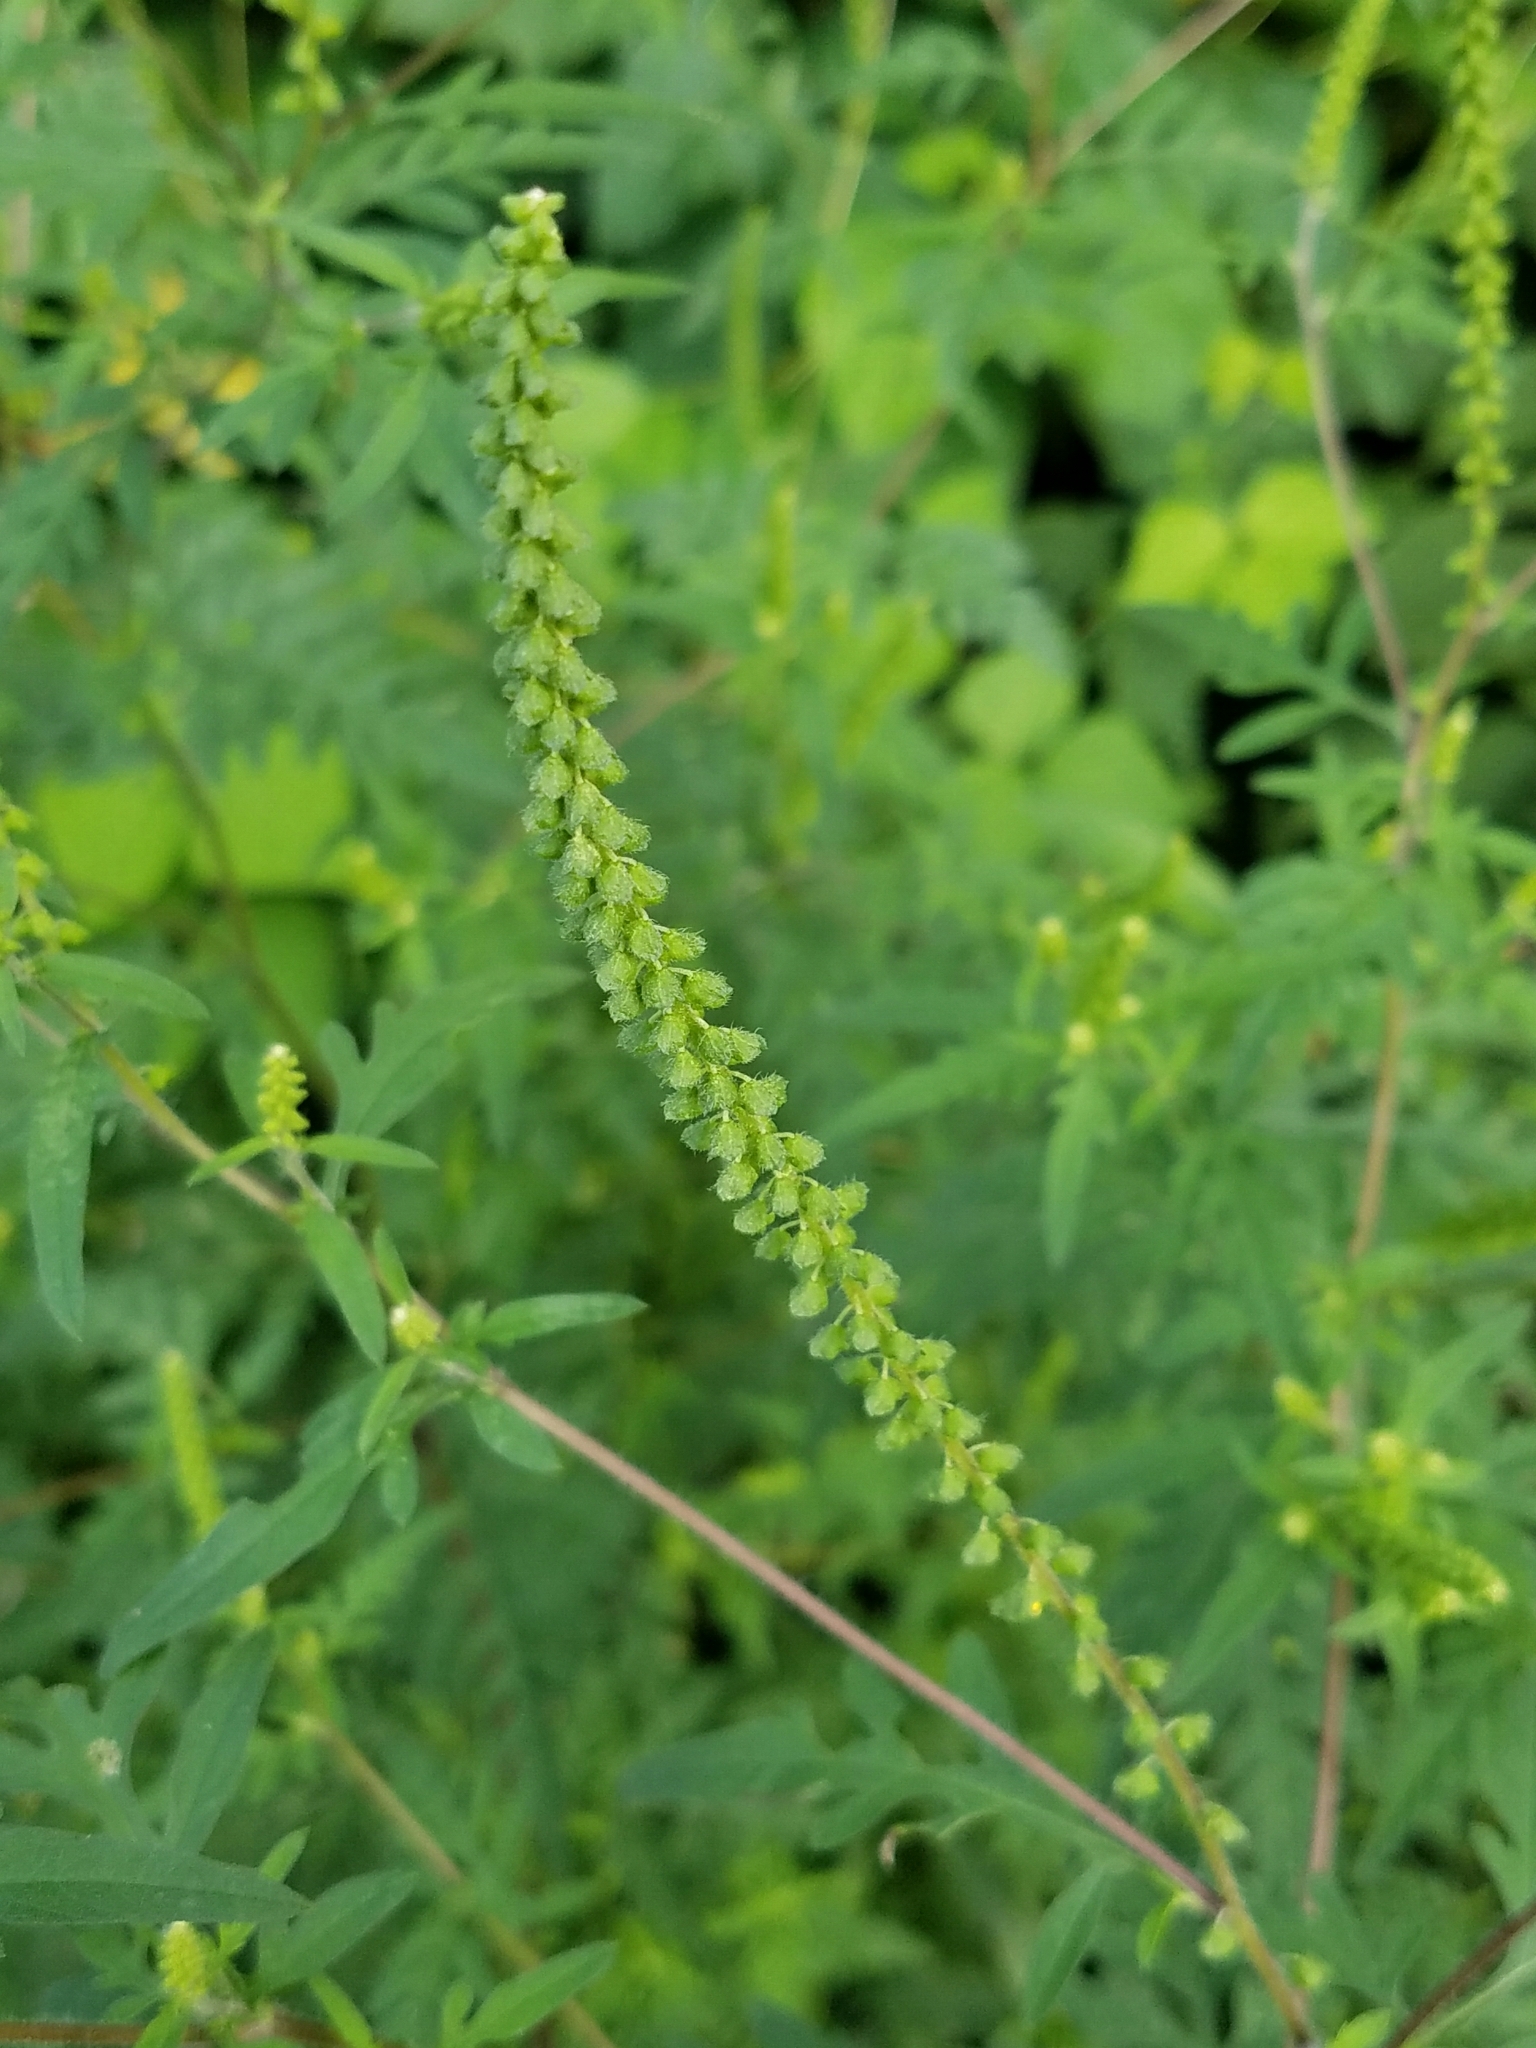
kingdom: Plantae
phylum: Tracheophyta
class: Magnoliopsida
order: Asterales
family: Asteraceae
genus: Ambrosia
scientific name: Ambrosia artemisiifolia
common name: Annual ragweed
